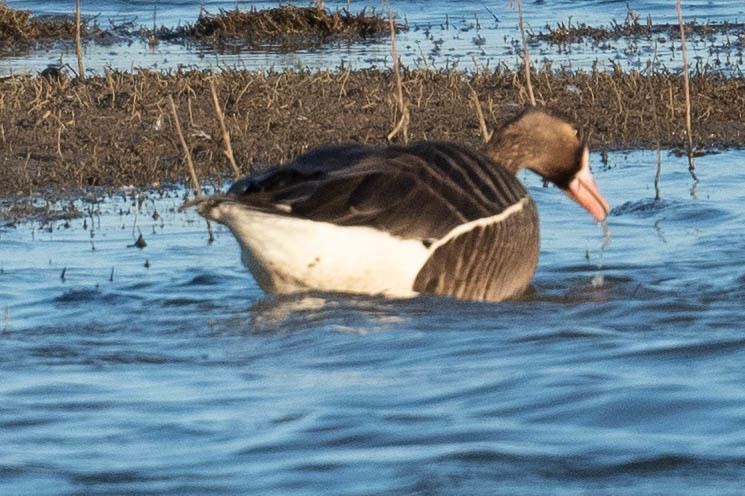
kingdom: Animalia
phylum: Chordata
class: Aves
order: Anseriformes
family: Anatidae
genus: Anser
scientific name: Anser albifrons
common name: Greater white-fronted goose
